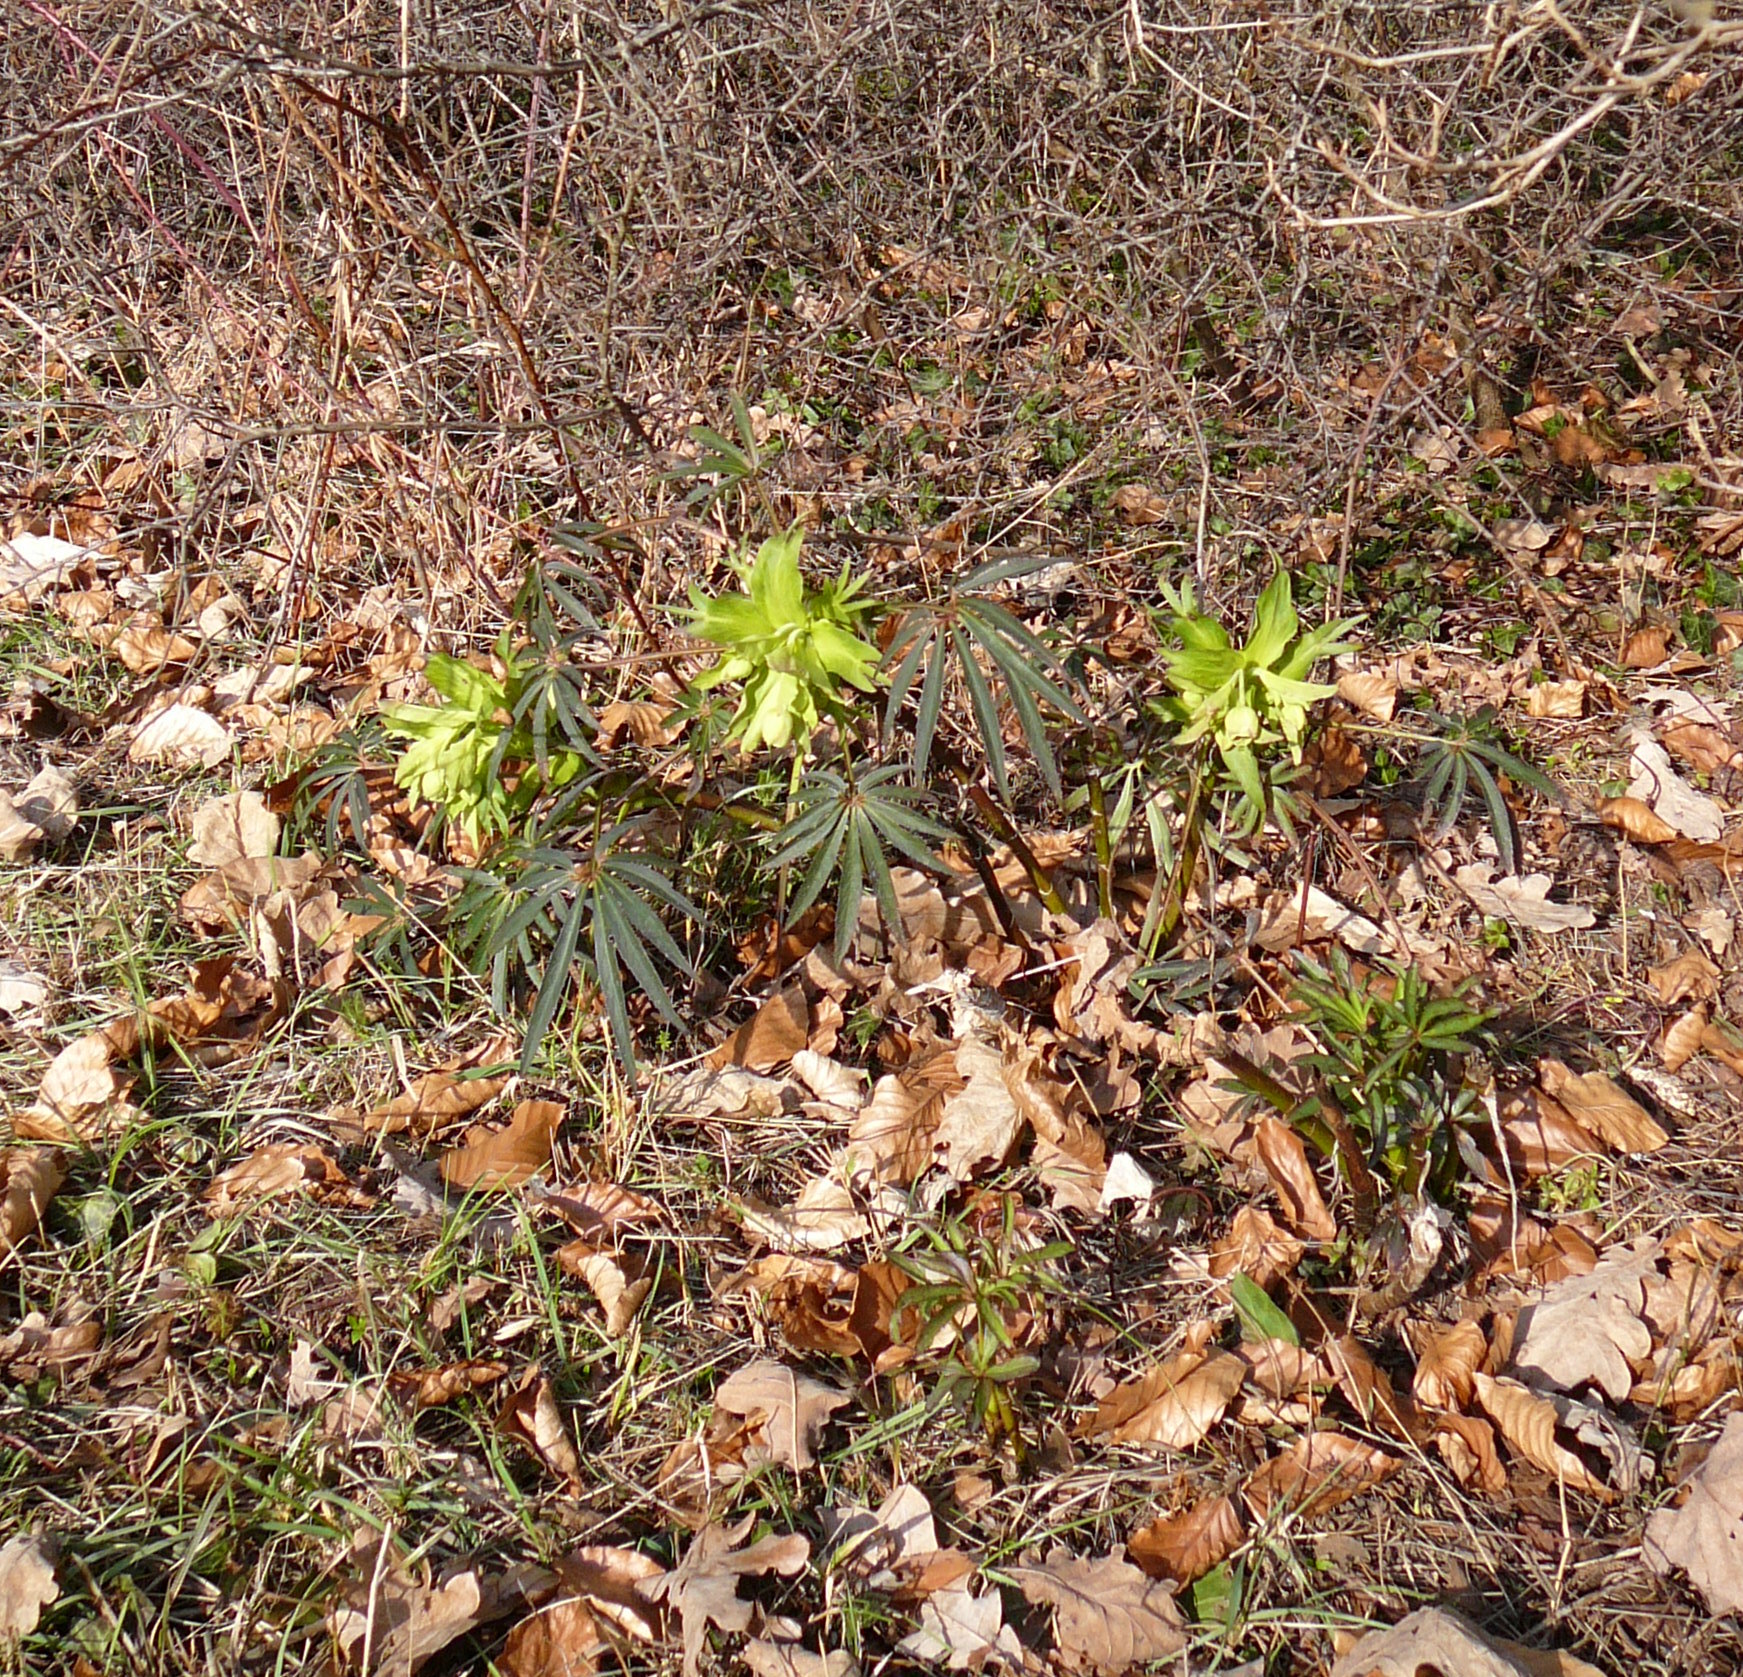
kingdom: Plantae
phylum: Tracheophyta
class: Magnoliopsida
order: Ranunculales
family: Ranunculaceae
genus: Helleborus
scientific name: Helleborus foetidus
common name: Stinking hellebore
